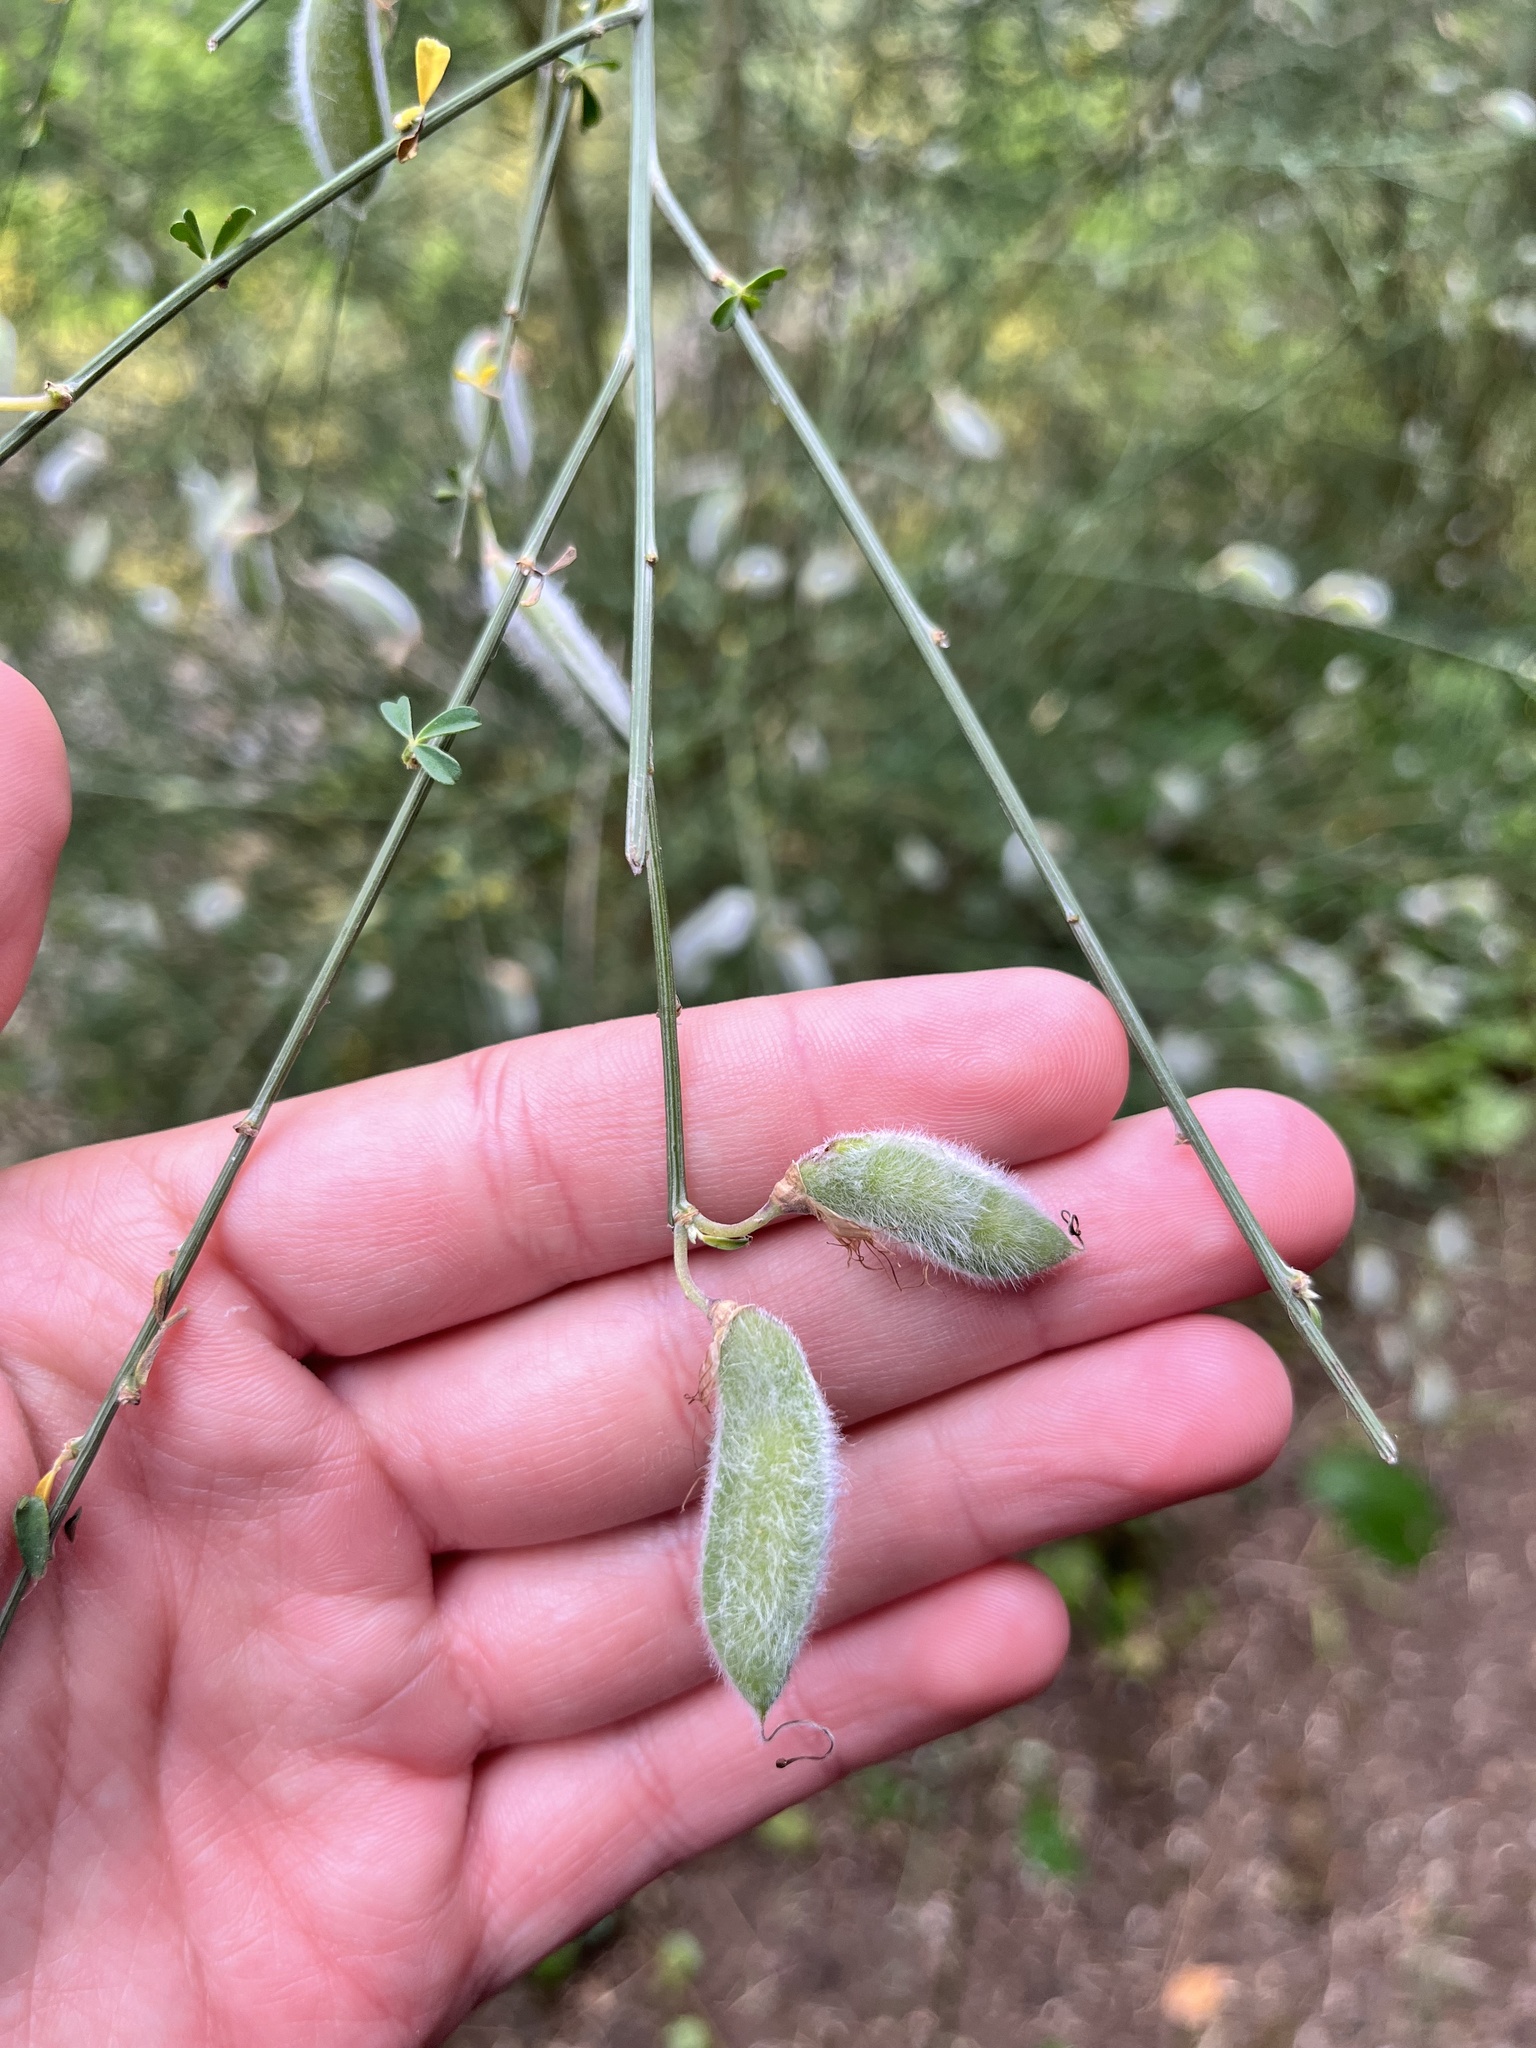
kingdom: Plantae
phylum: Tracheophyta
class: Magnoliopsida
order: Fabales
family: Fabaceae
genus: Cytisus
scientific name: Cytisus striatus
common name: Hairy-fruited broom
